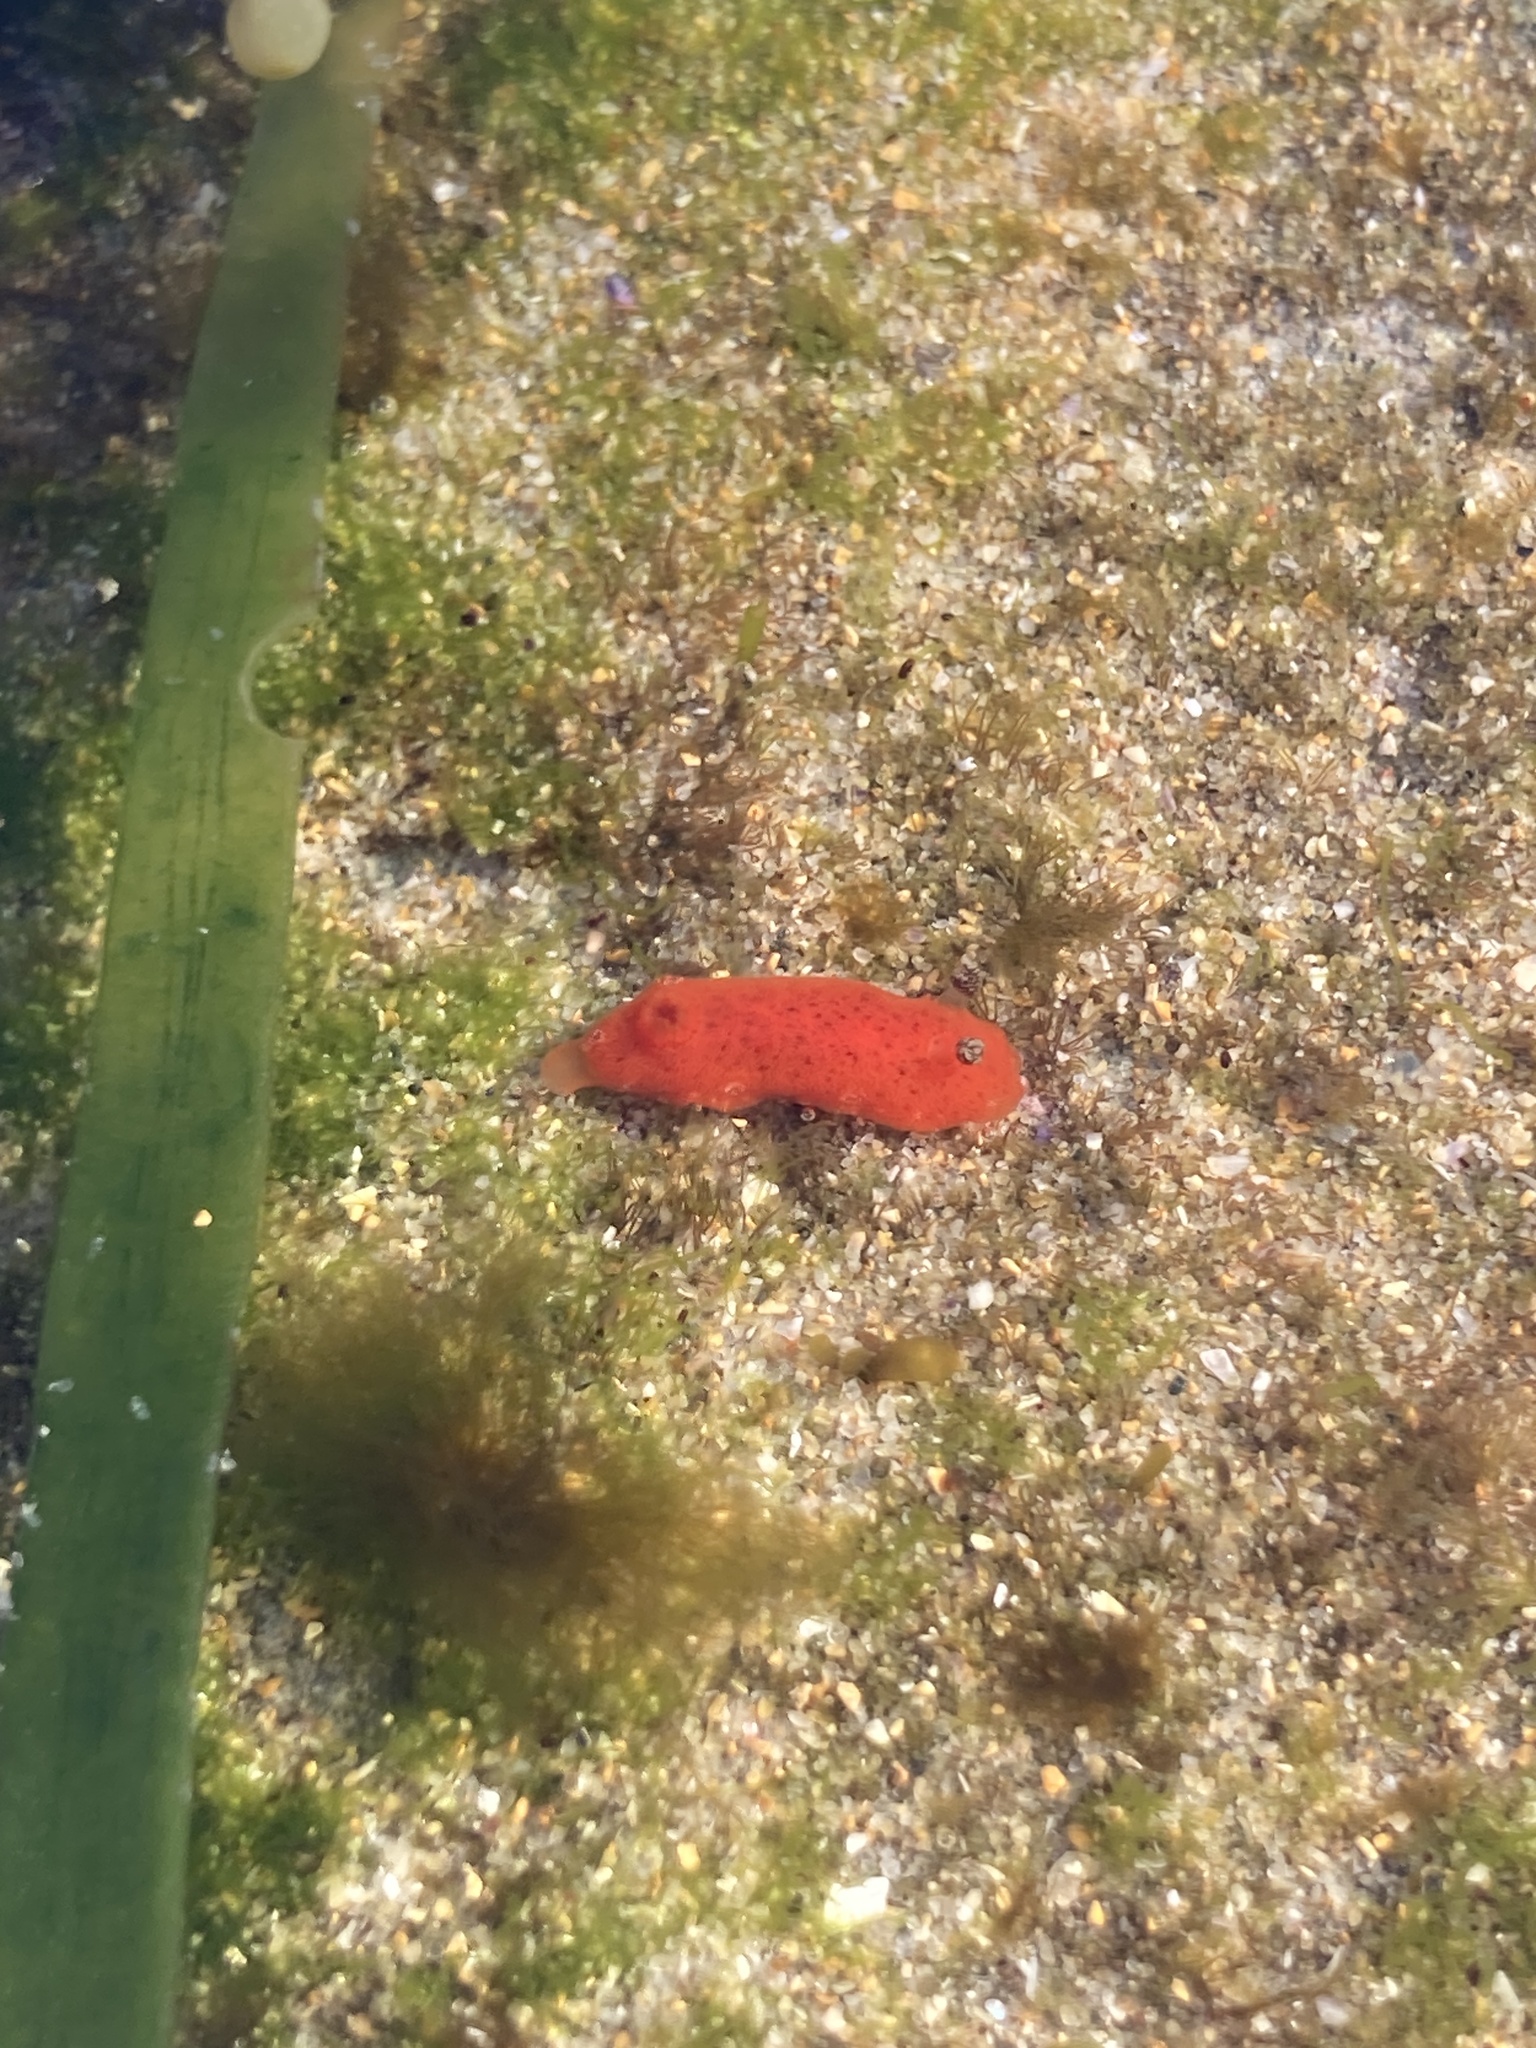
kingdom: Animalia
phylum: Mollusca
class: Gastropoda
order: Nudibranchia
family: Discodorididae
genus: Rostanga
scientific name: Rostanga arbutus
